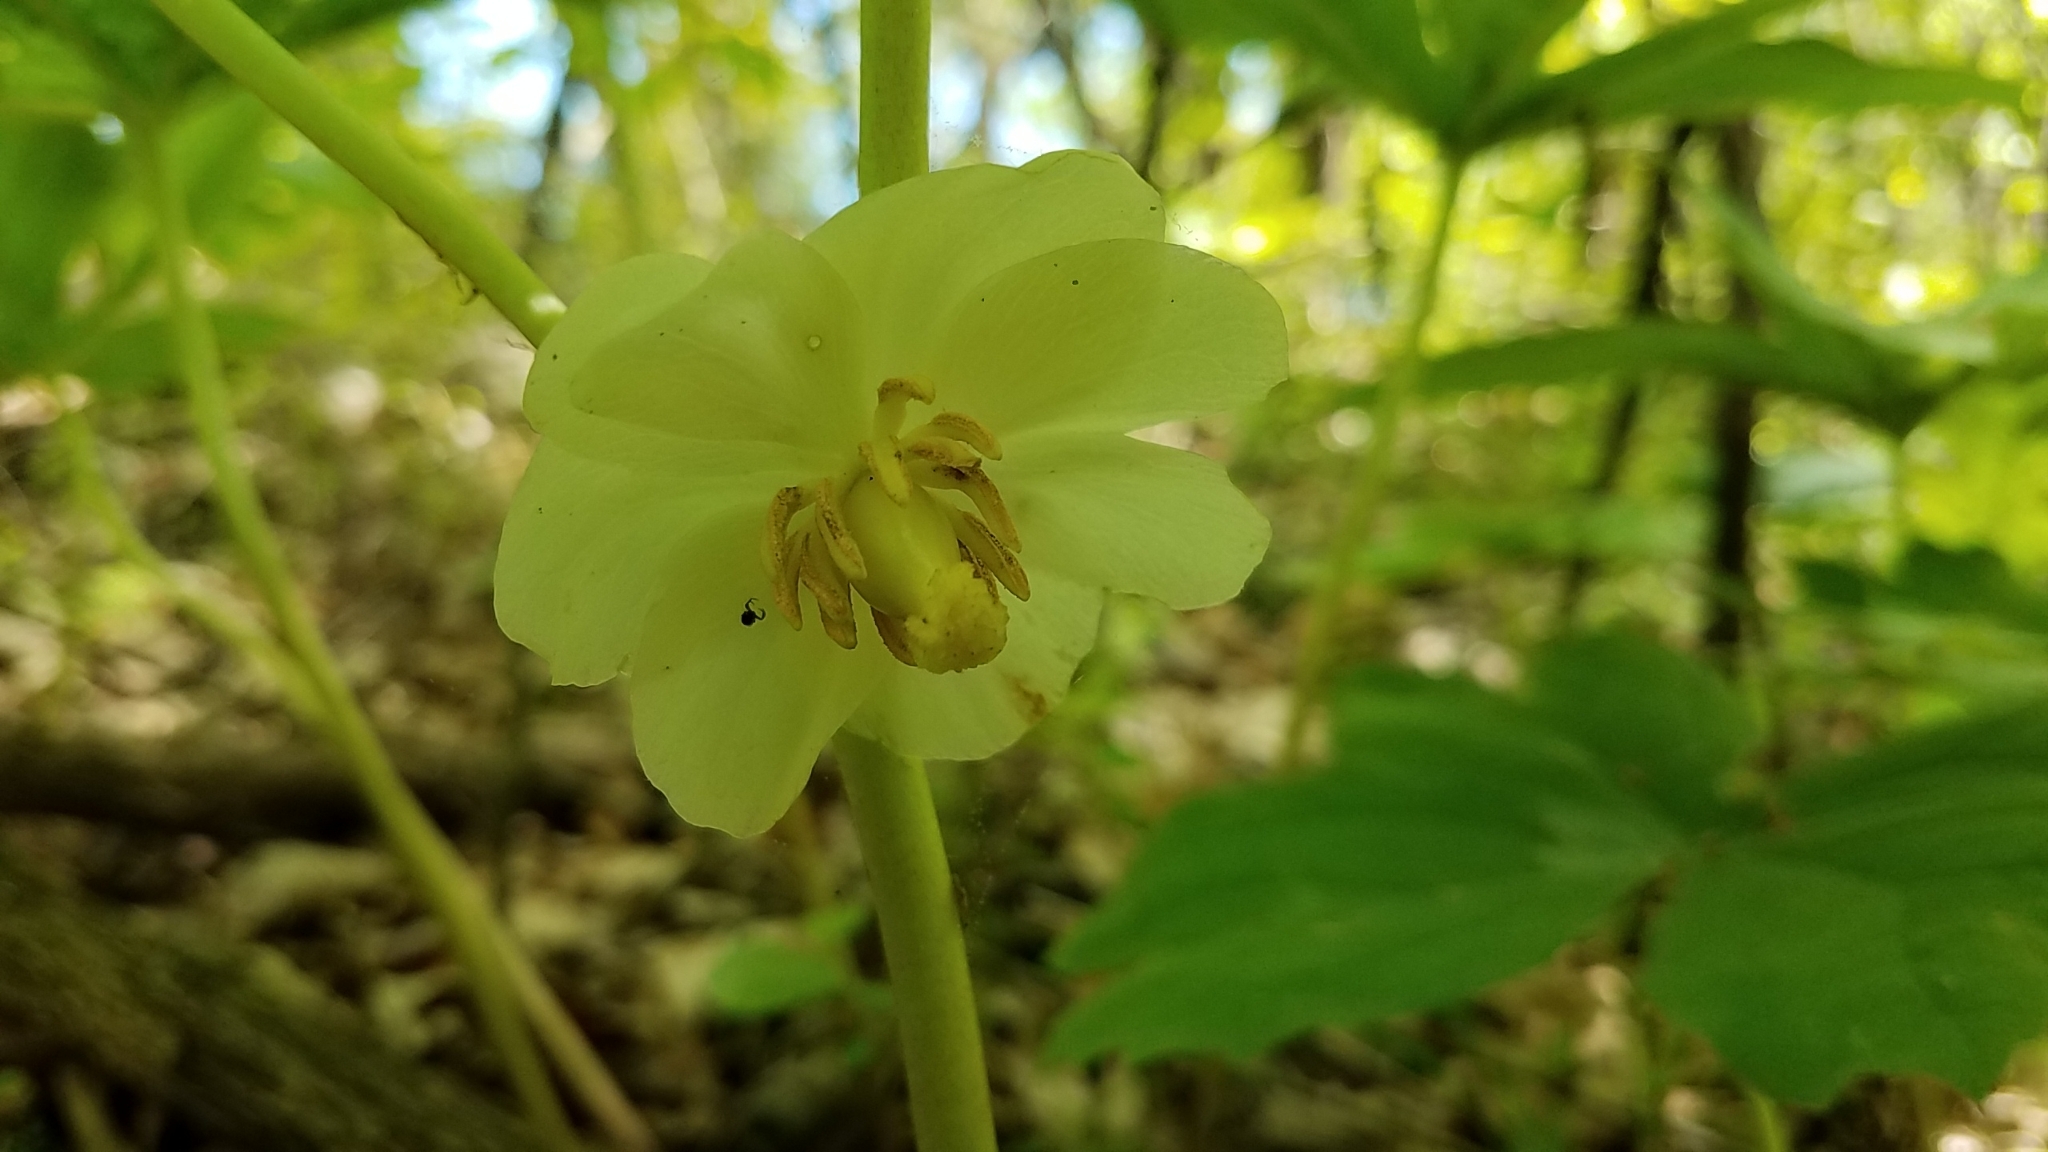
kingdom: Plantae
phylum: Tracheophyta
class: Magnoliopsida
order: Ranunculales
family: Berberidaceae
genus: Podophyllum
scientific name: Podophyllum peltatum
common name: Wild mandrake
